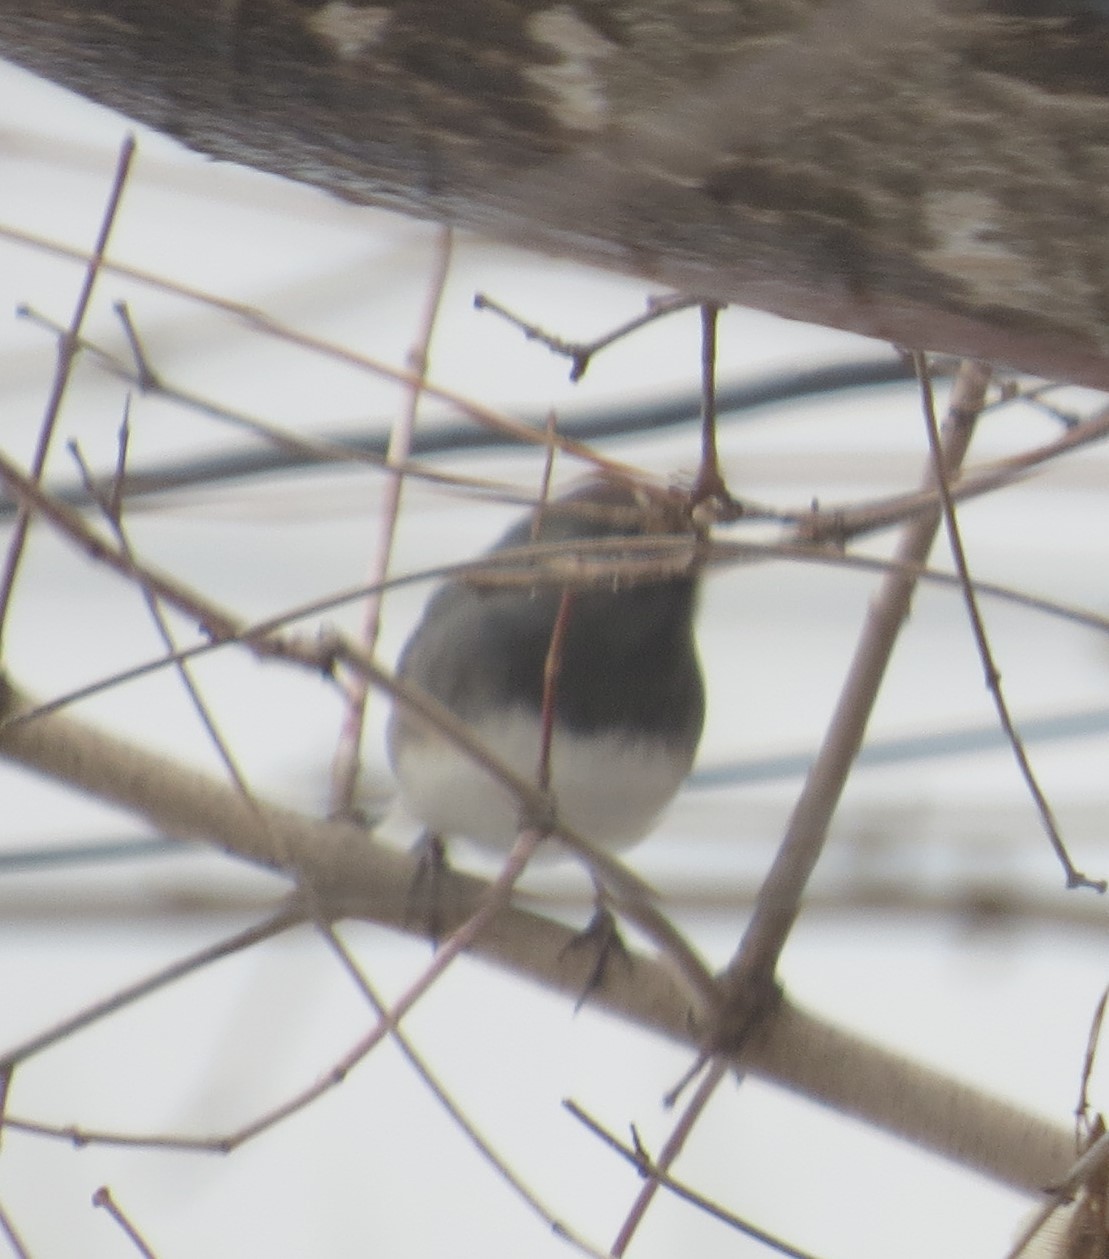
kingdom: Animalia
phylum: Chordata
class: Aves
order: Passeriformes
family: Passerellidae
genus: Junco
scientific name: Junco hyemalis
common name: Dark-eyed junco
